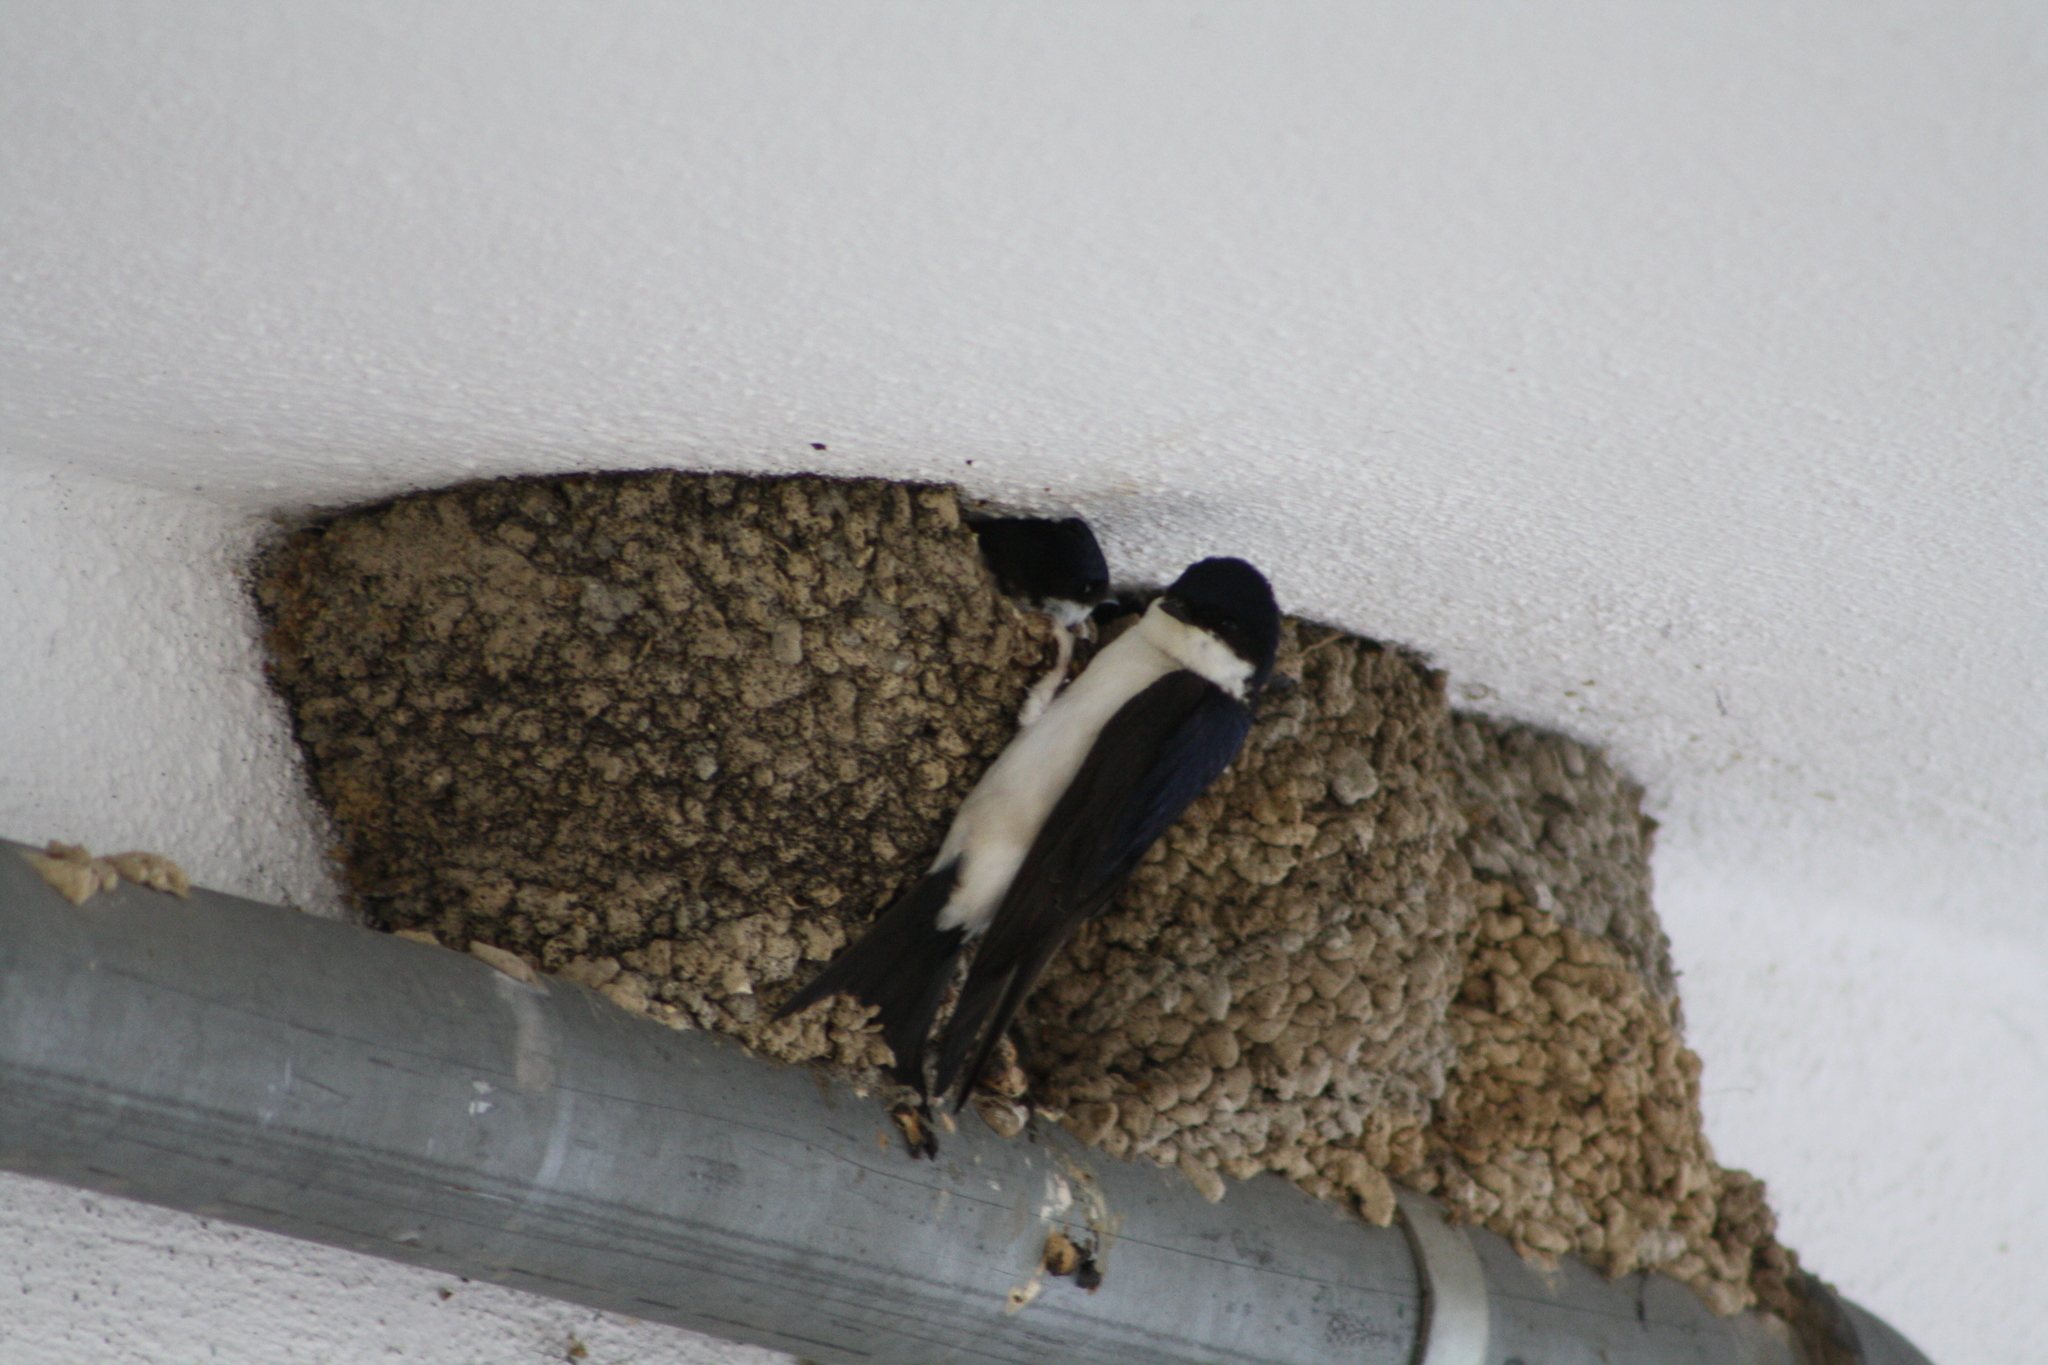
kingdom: Animalia
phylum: Chordata
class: Aves
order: Passeriformes
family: Hirundinidae
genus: Delichon
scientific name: Delichon urbicum
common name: Common house martin
